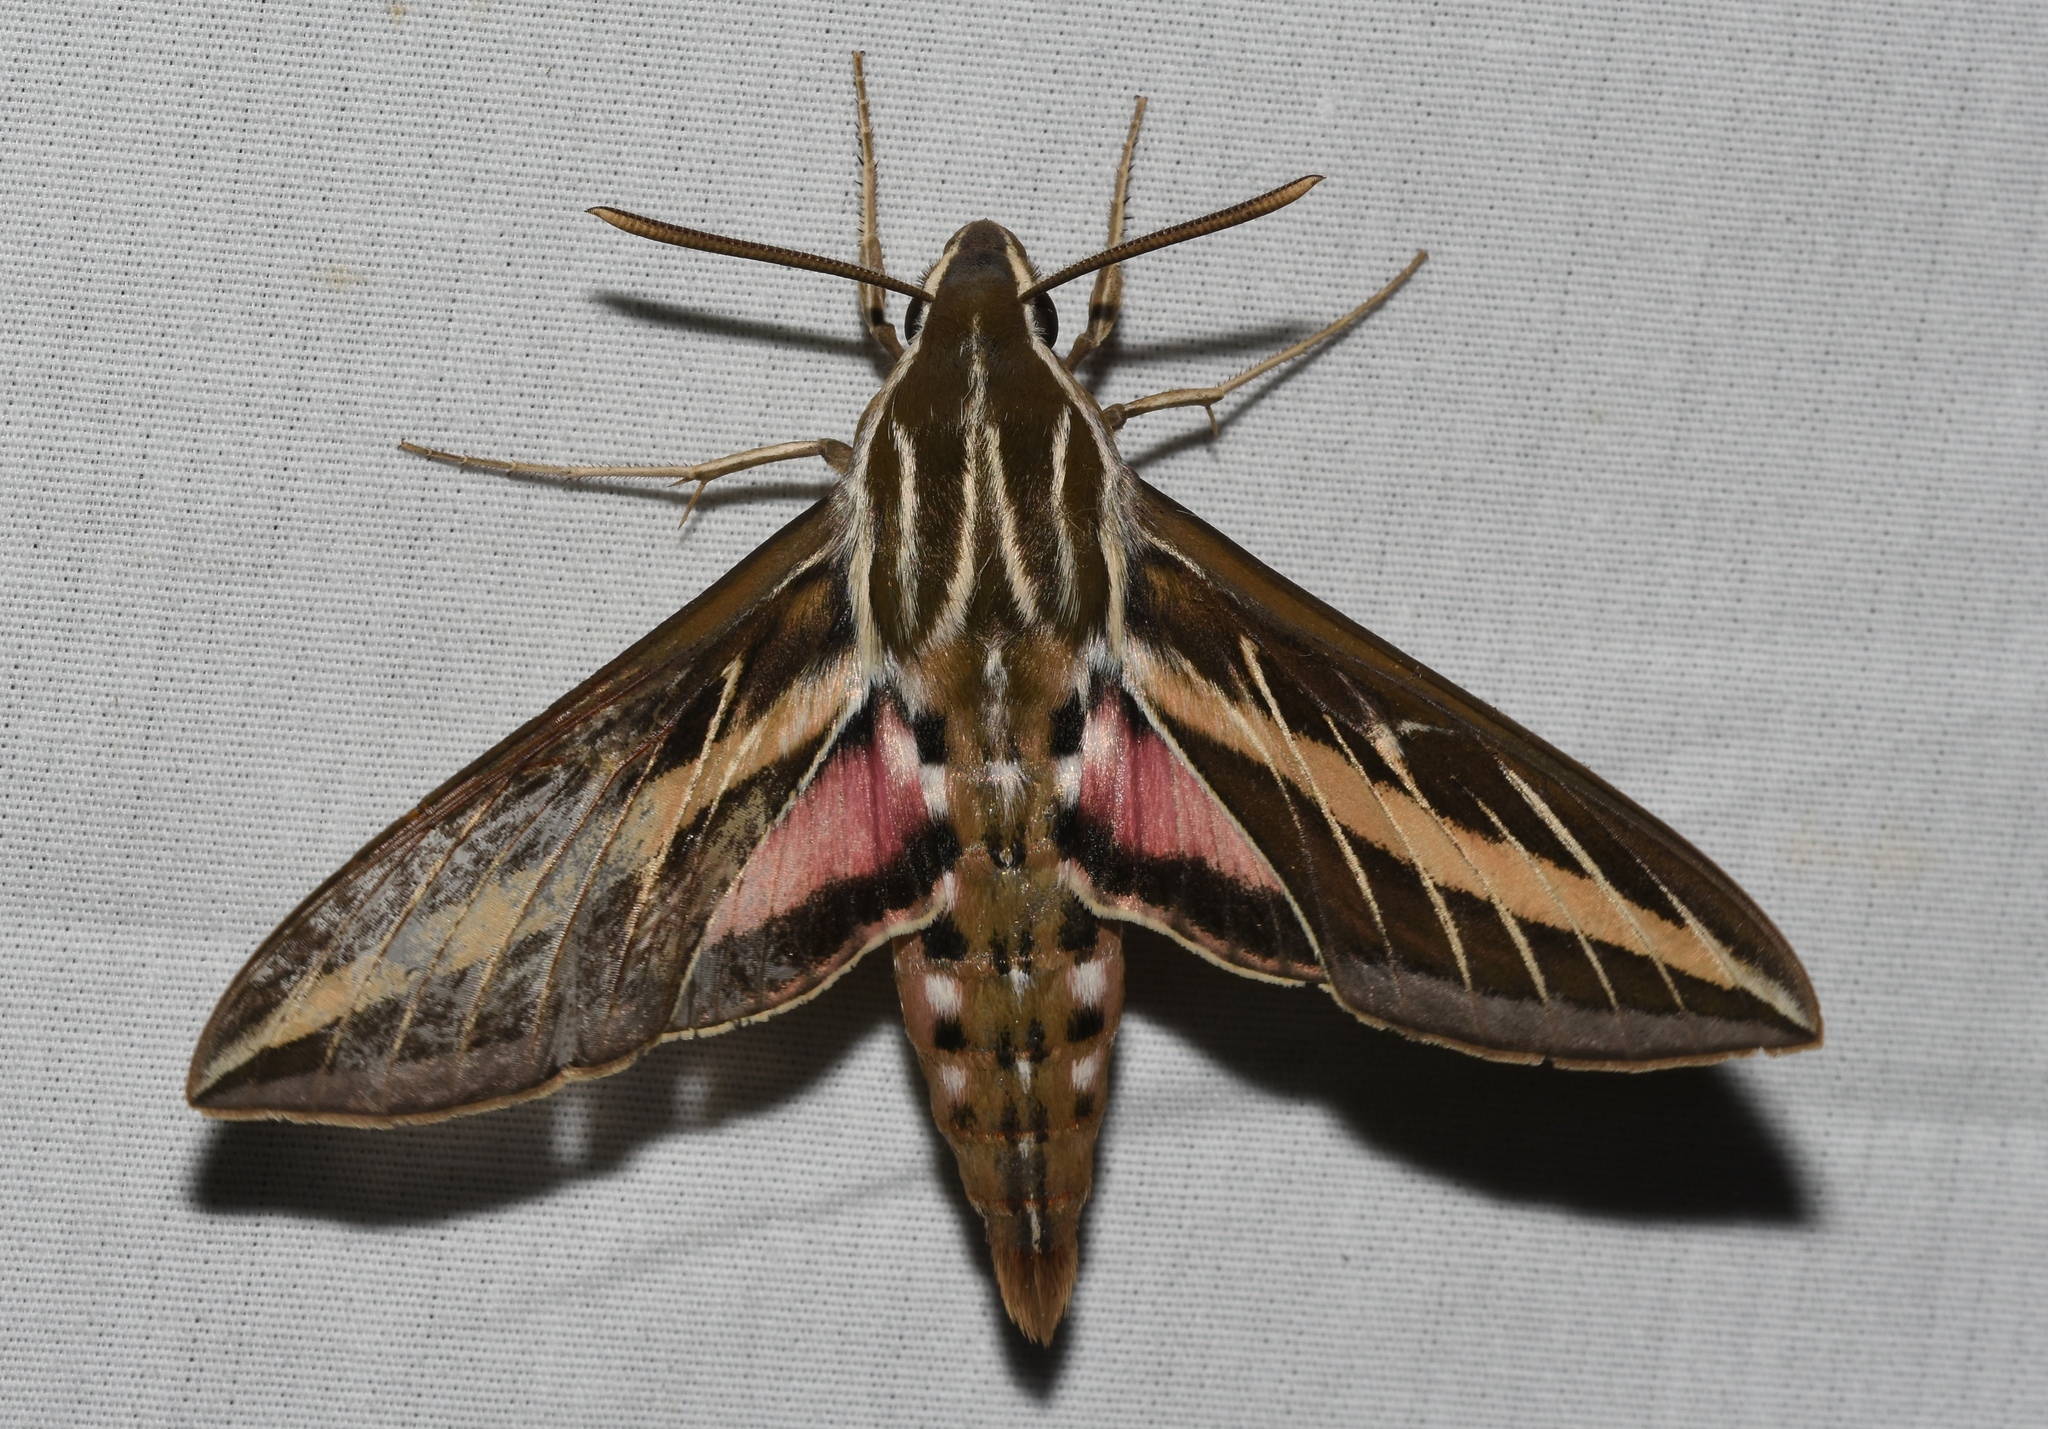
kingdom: Animalia
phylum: Arthropoda
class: Insecta
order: Lepidoptera
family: Sphingidae
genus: Hyles
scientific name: Hyles lineata
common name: White-lined sphinx
